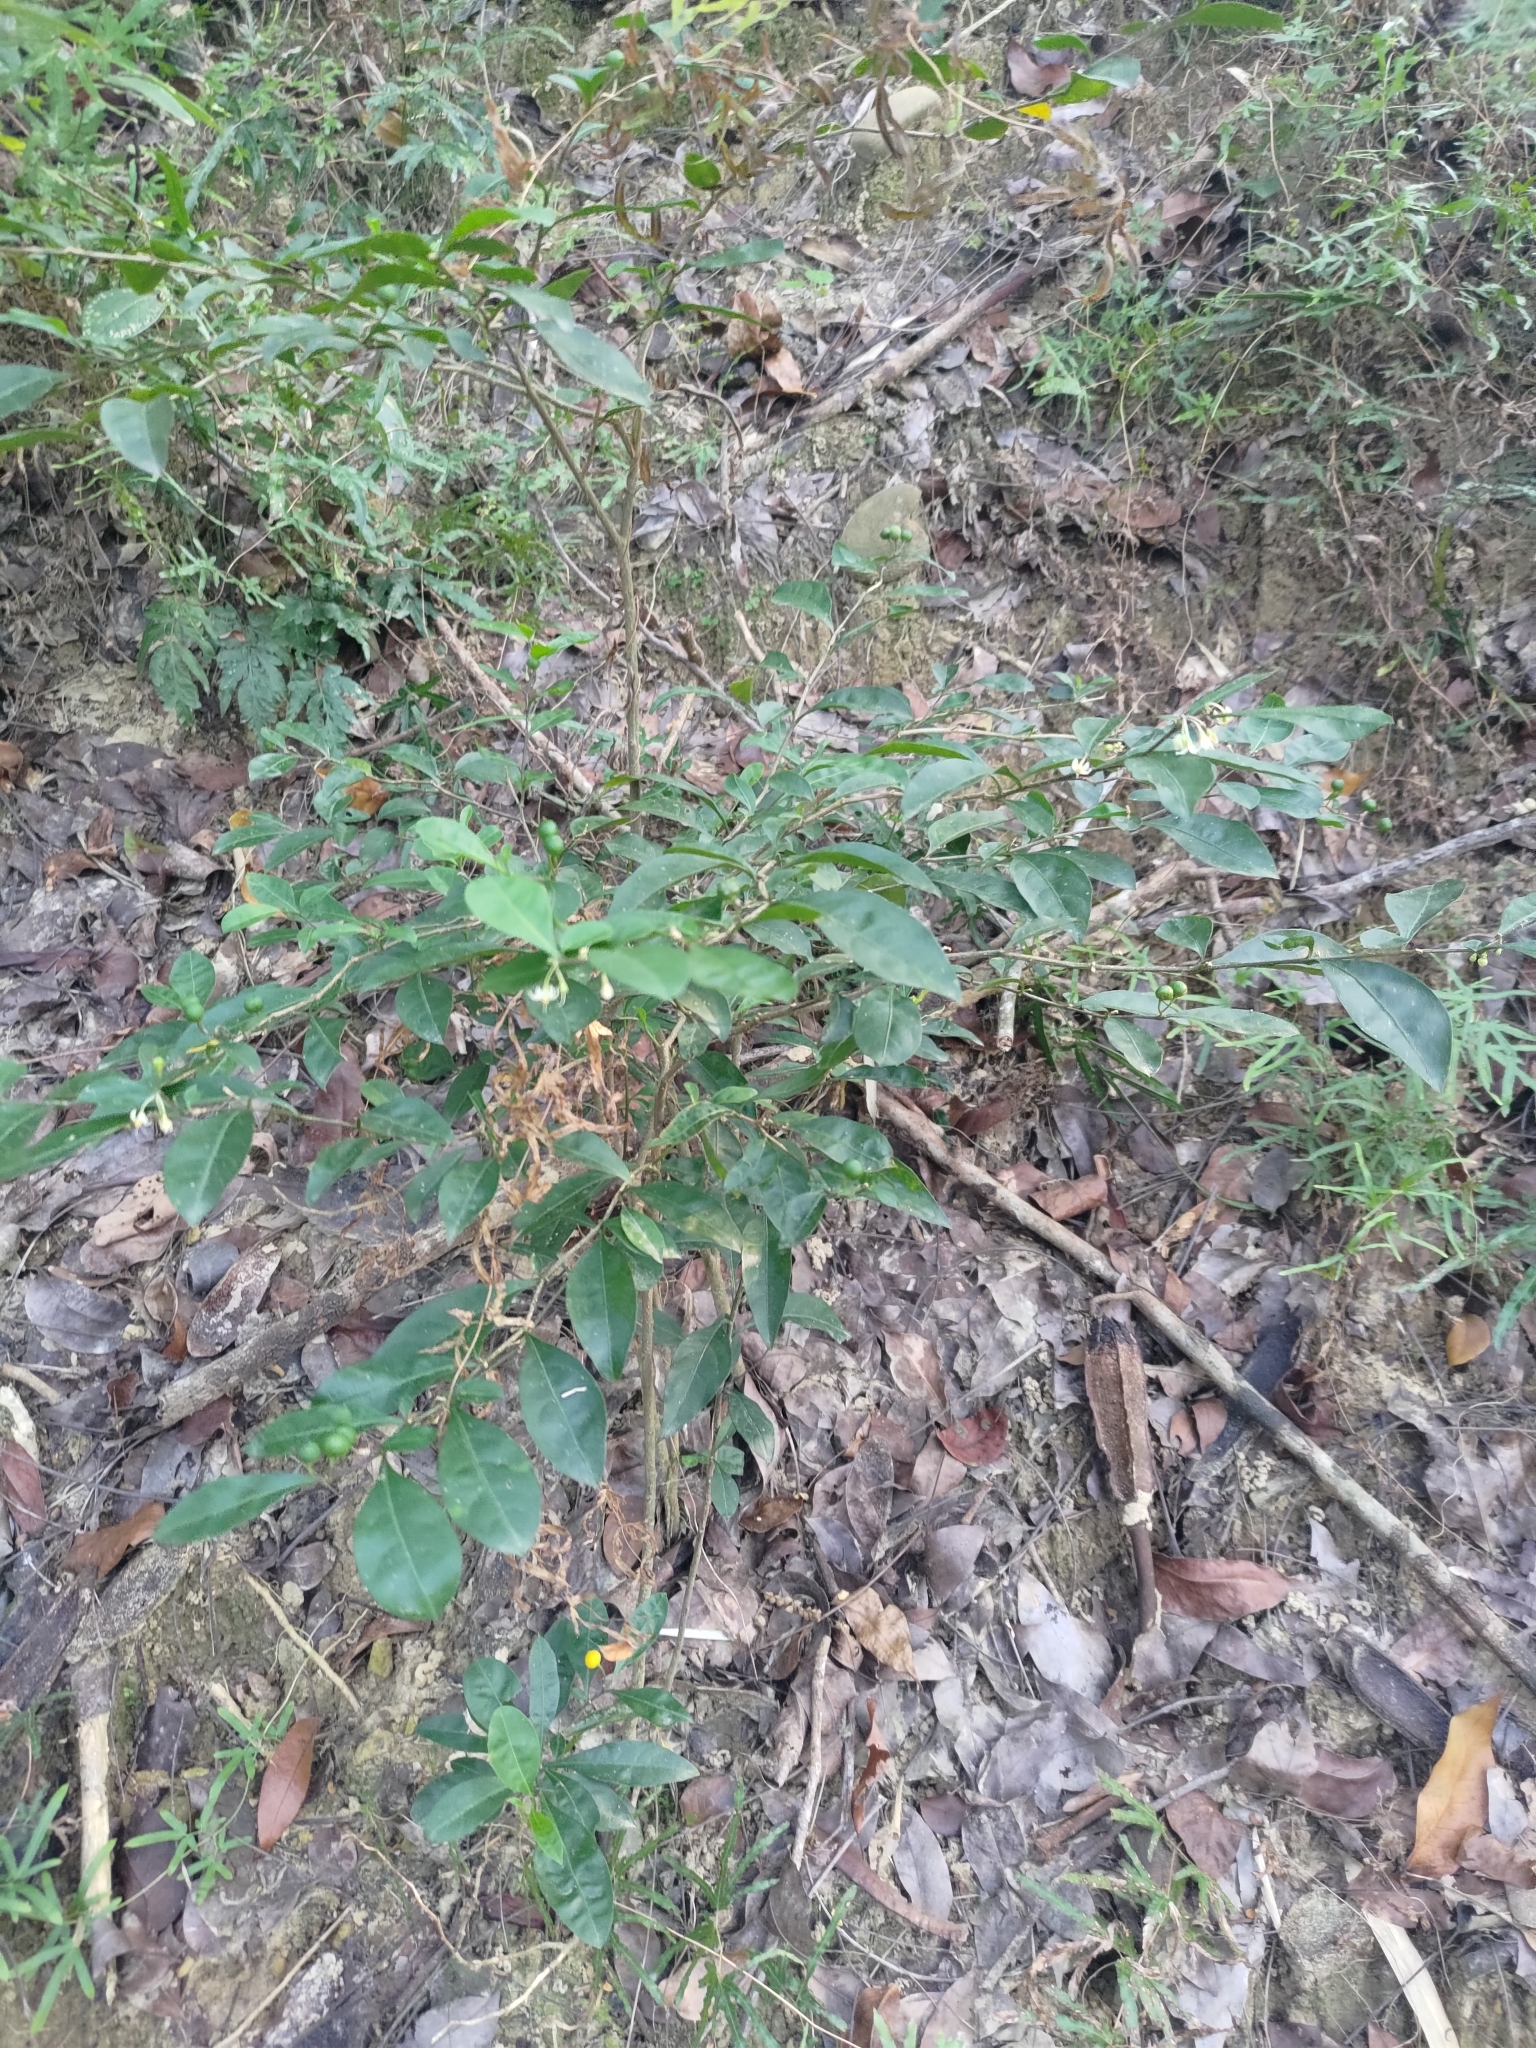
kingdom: Plantae
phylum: Tracheophyta
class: Magnoliopsida
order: Solanales
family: Solanaceae
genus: Solanum
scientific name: Solanum diphyllum
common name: Twoleaf nightshade
